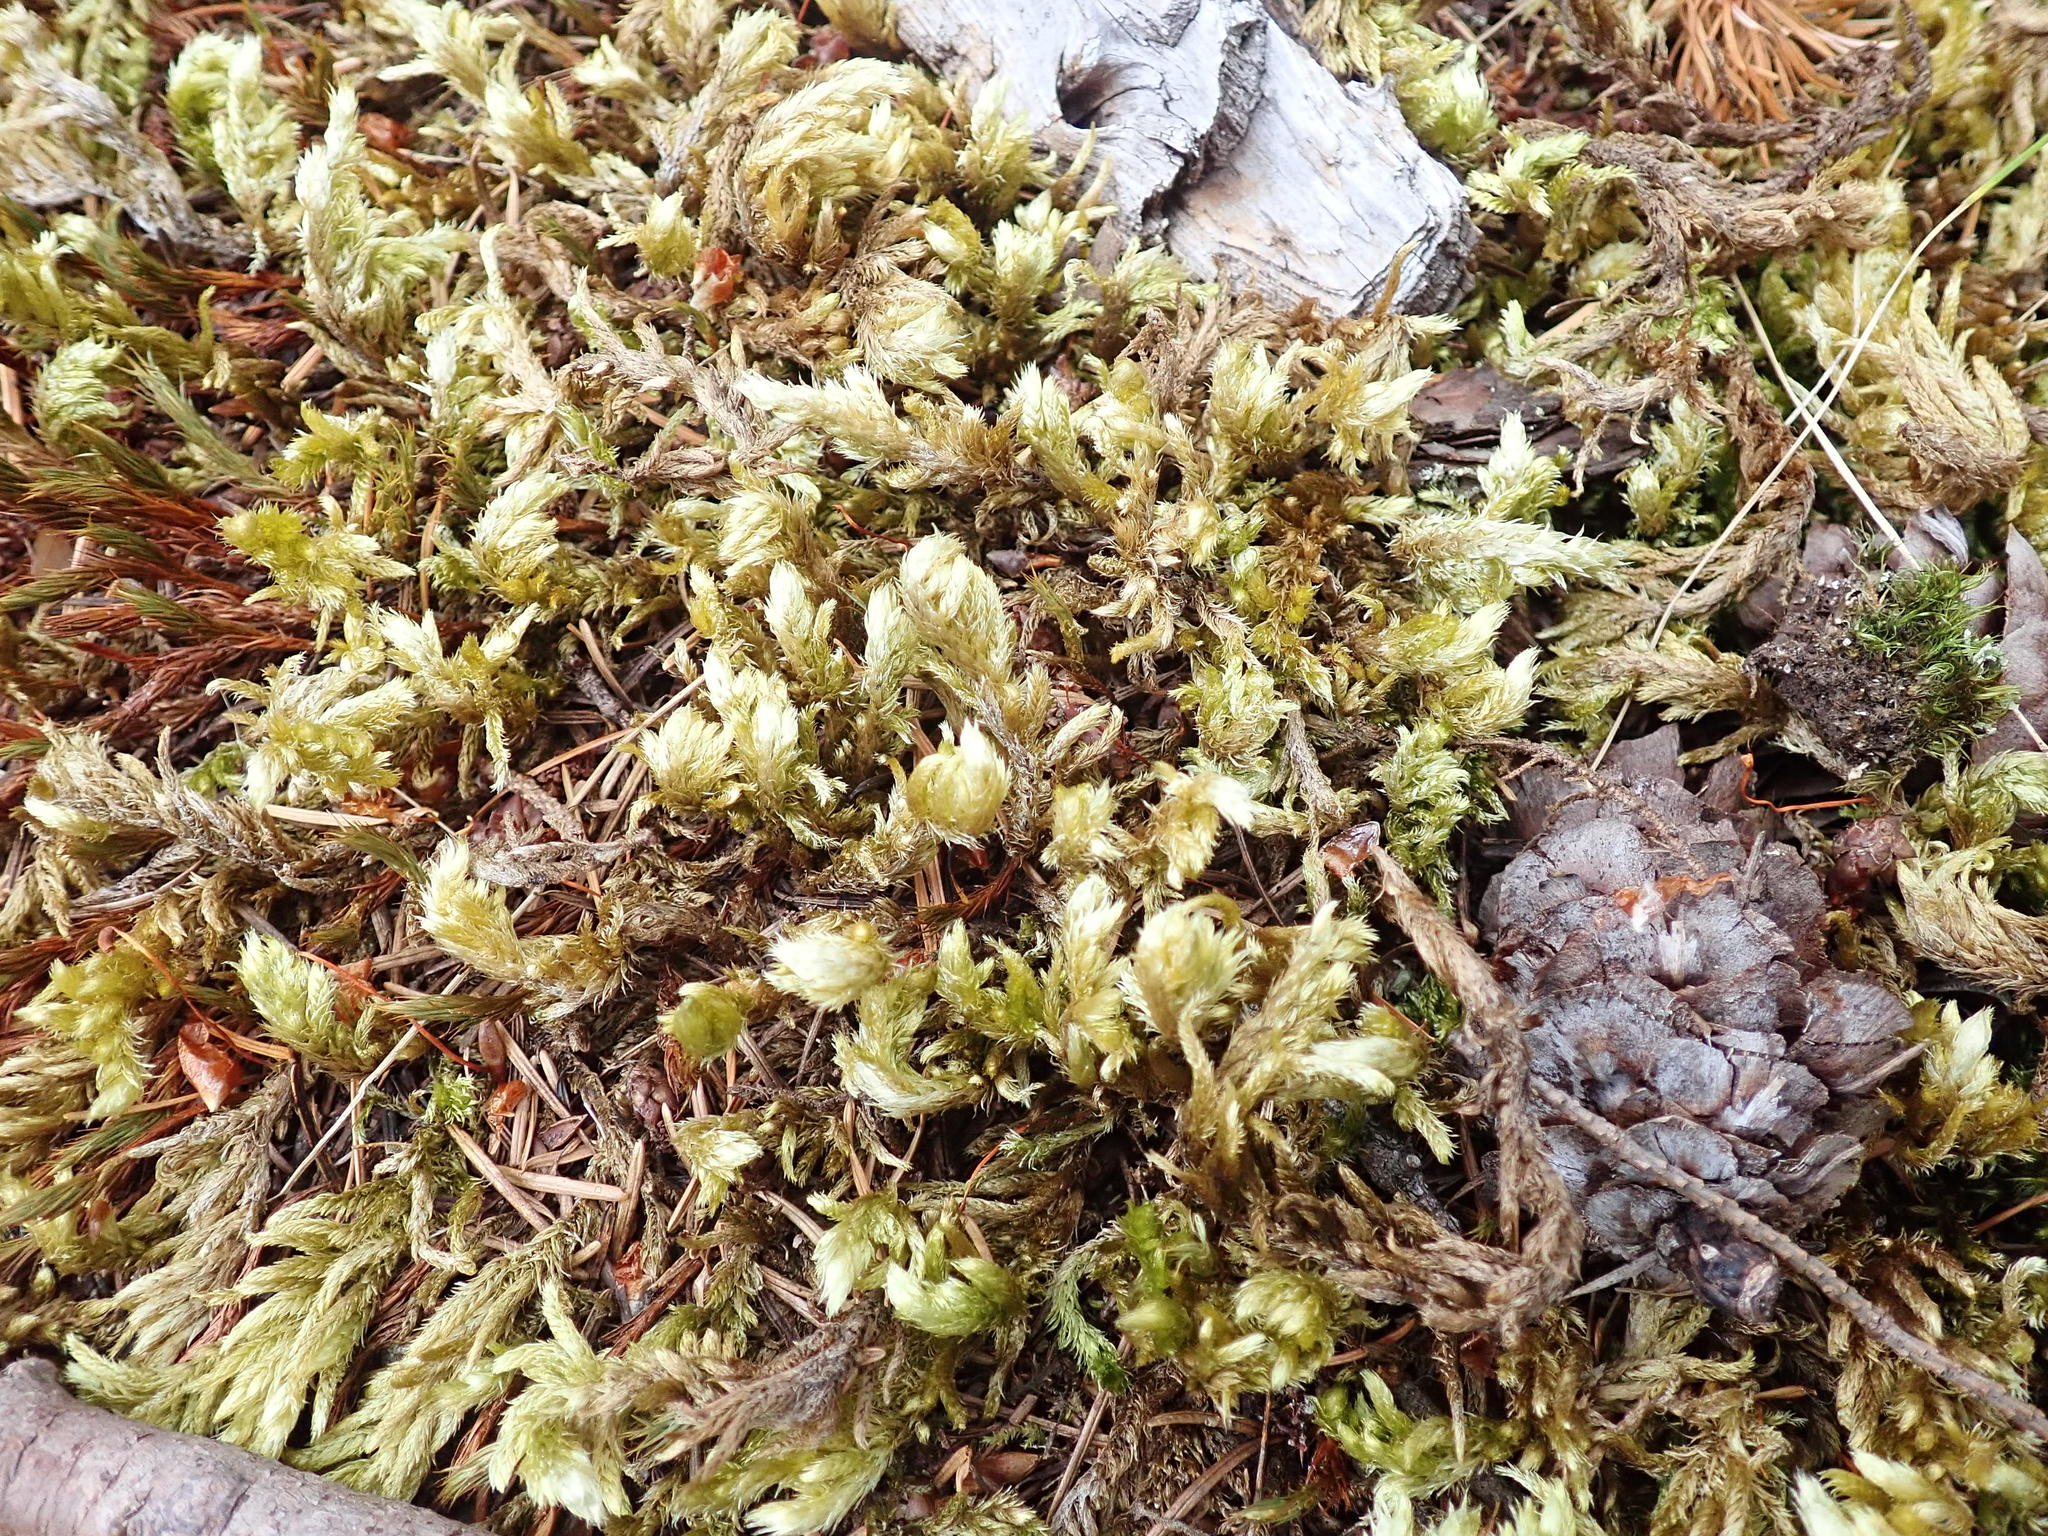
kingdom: Plantae
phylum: Bryophyta
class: Bryopsida
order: Hypnales
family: Brachytheciaceae
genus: Homalothecium
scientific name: Homalothecium megaptilum
